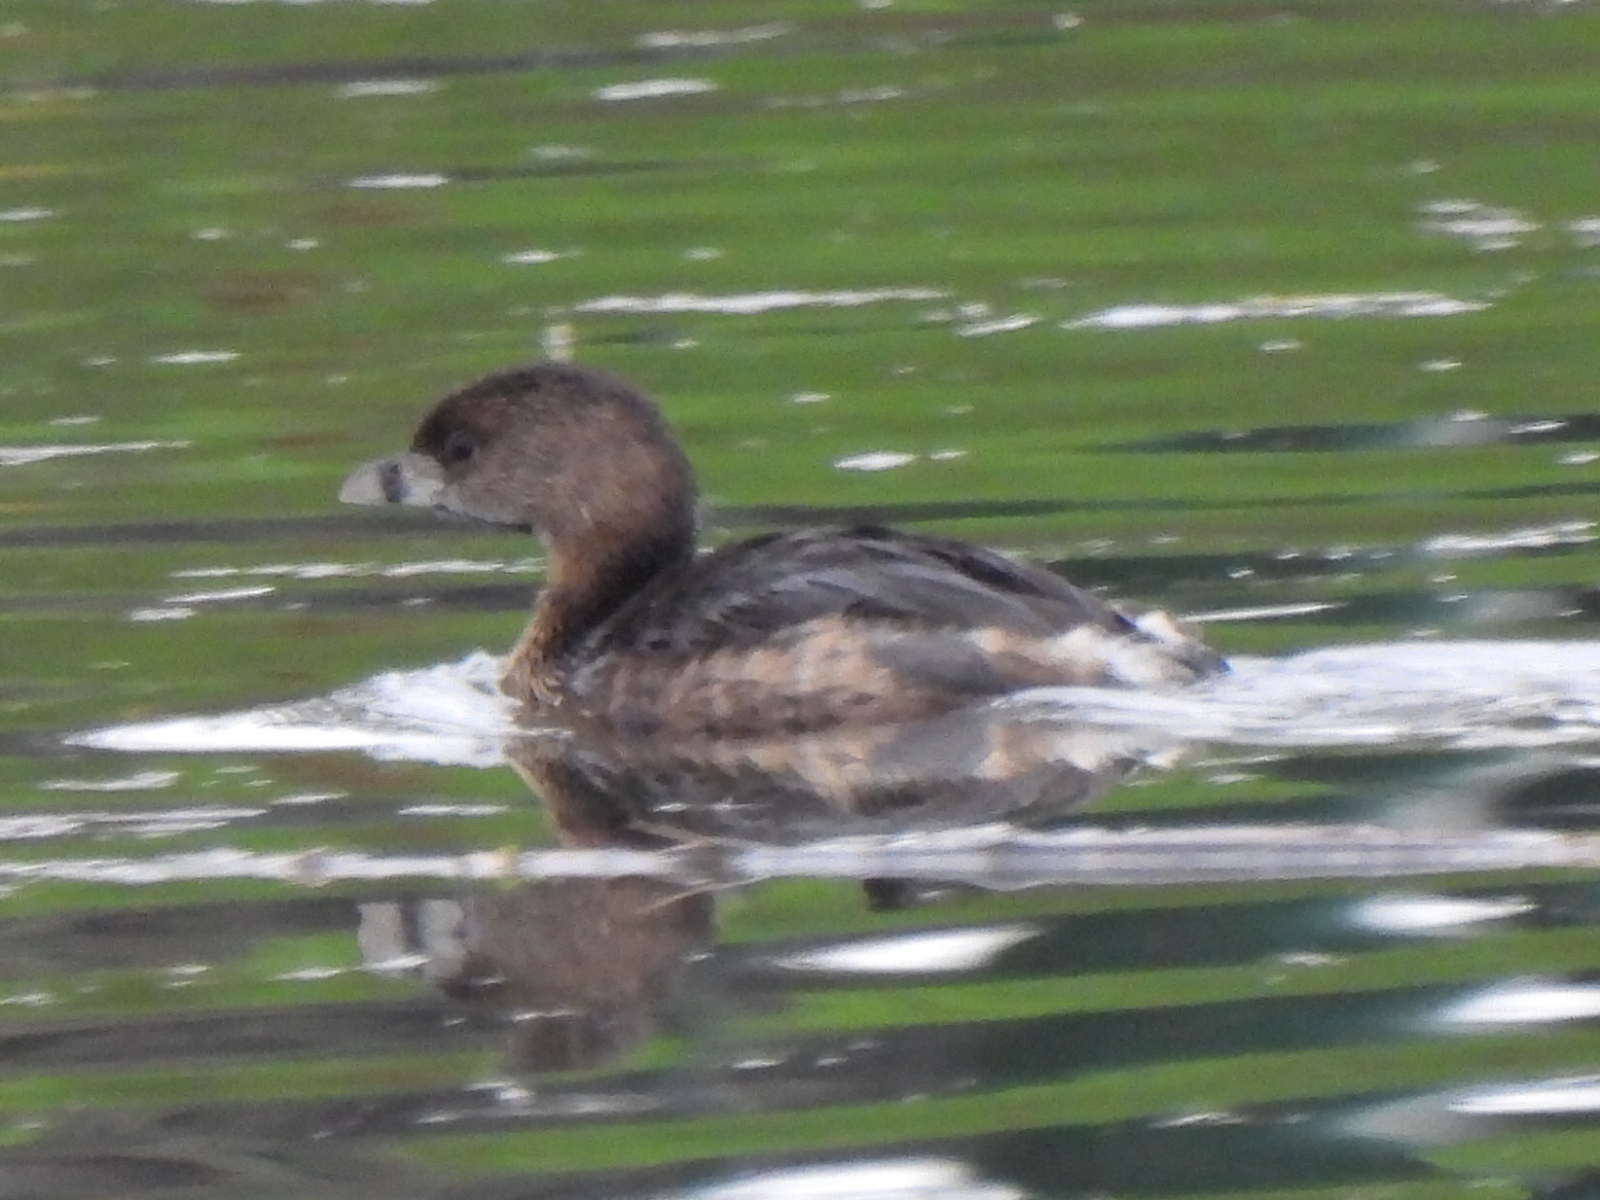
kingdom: Animalia
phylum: Chordata
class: Aves
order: Podicipediformes
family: Podicipedidae
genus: Podilymbus
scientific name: Podilymbus podiceps
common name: Pied-billed grebe
